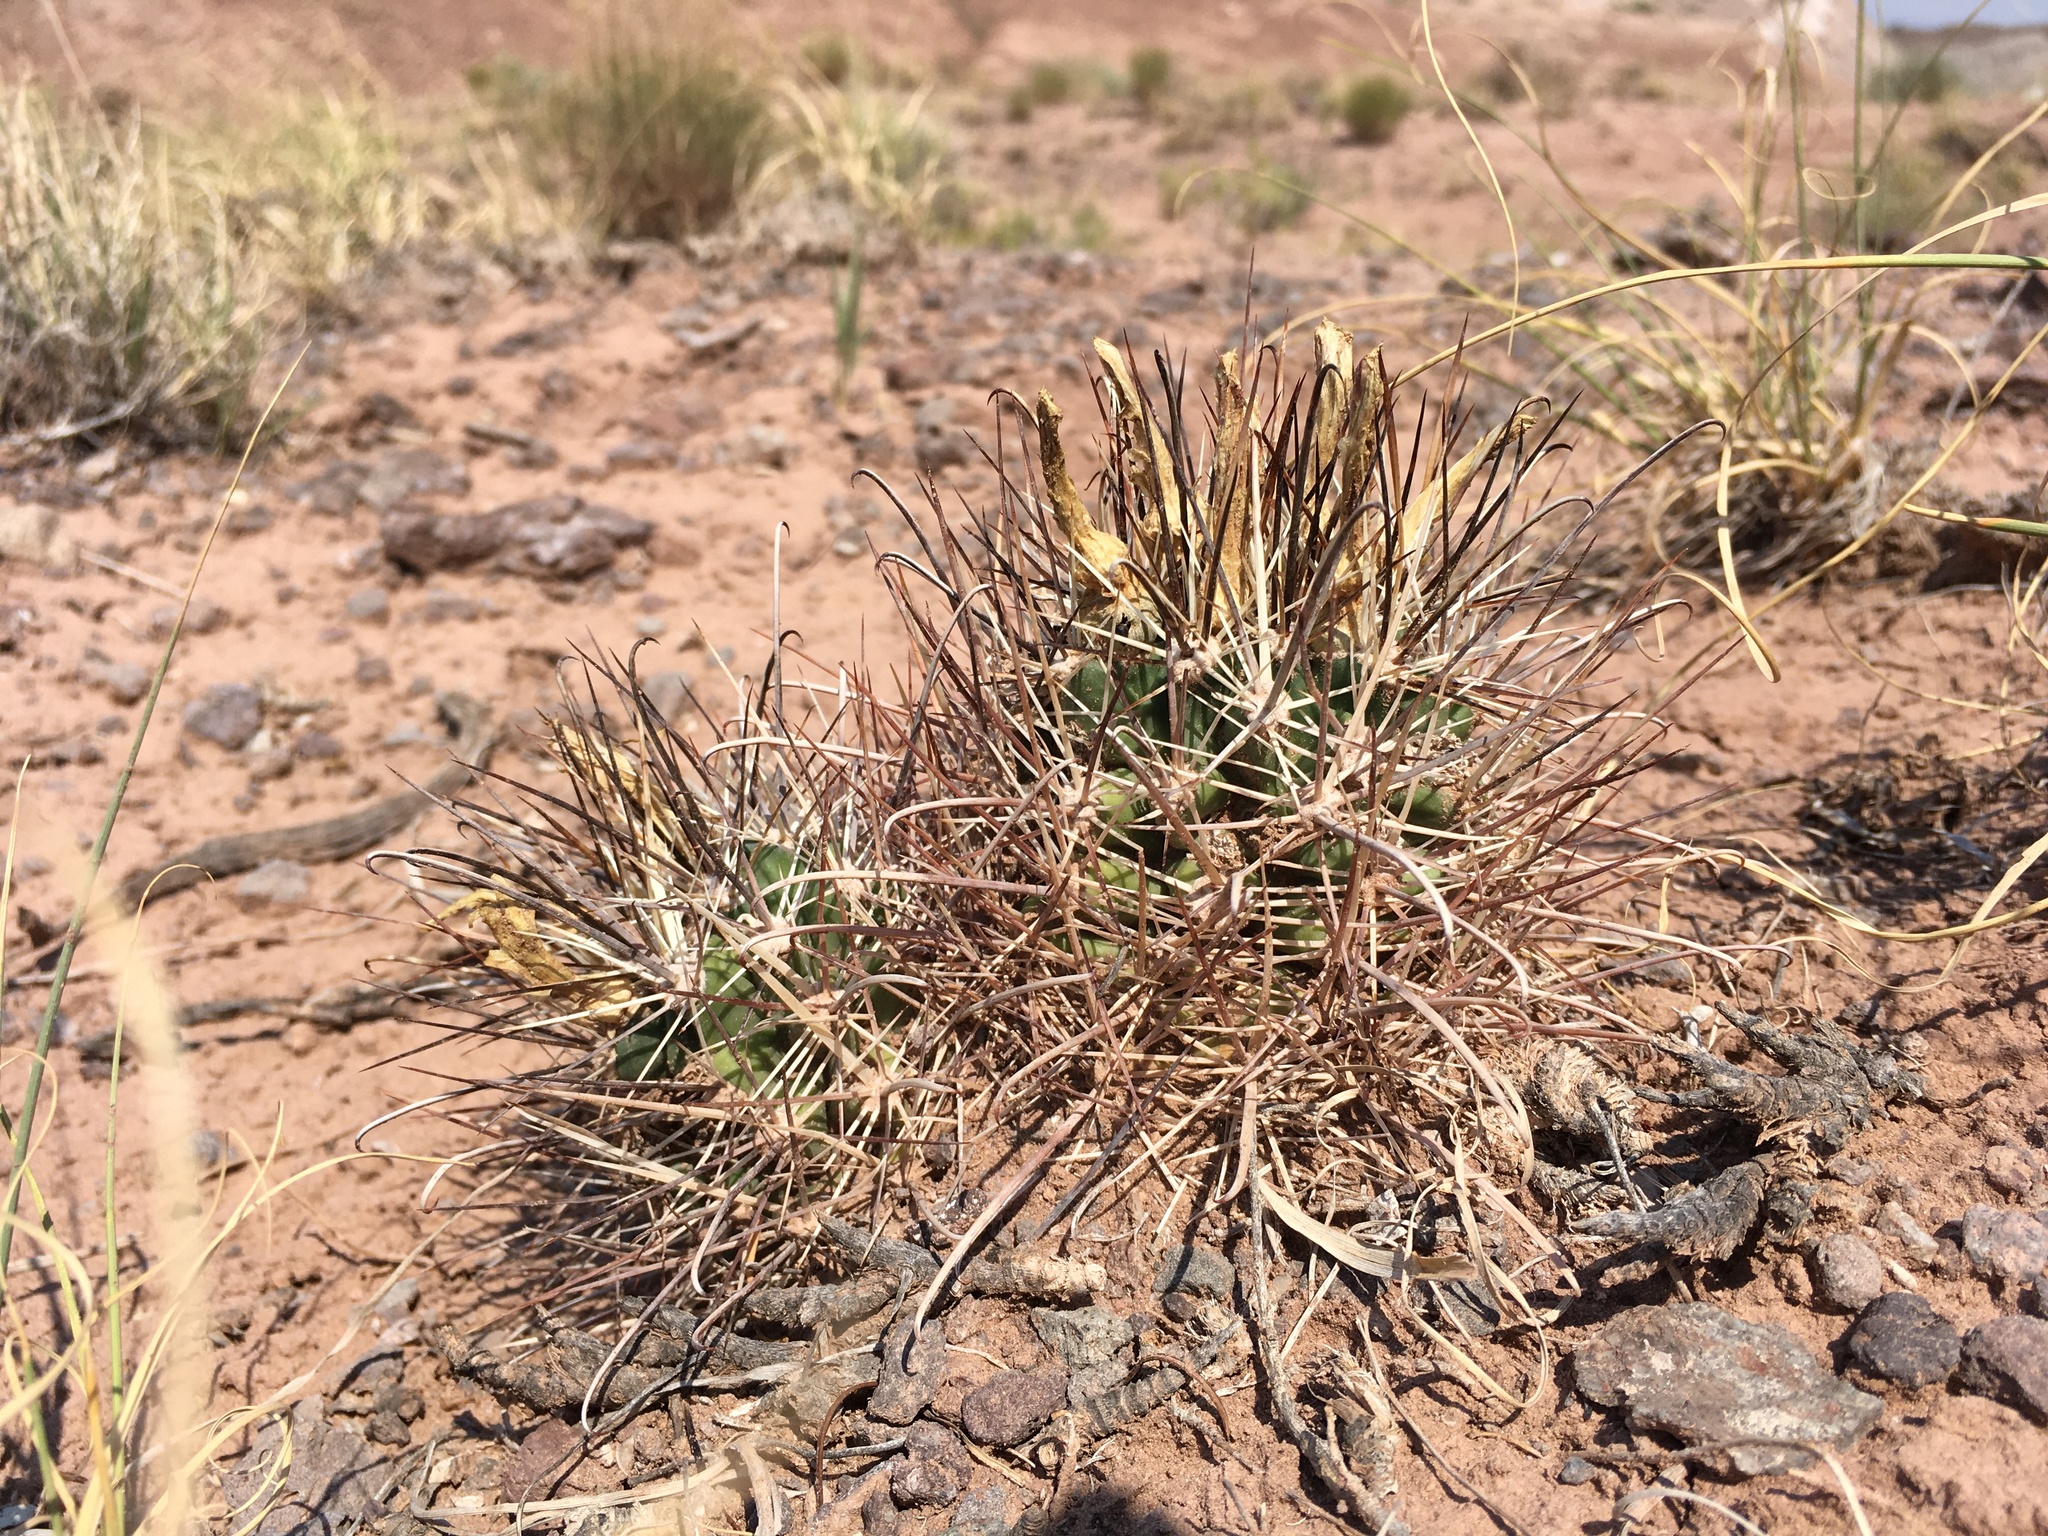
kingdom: Plantae
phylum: Tracheophyta
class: Magnoliopsida
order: Caryophyllales
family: Cactaceae
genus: Sclerocactus
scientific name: Sclerocactus parviflorus
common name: Small-flower fishhook cactus
